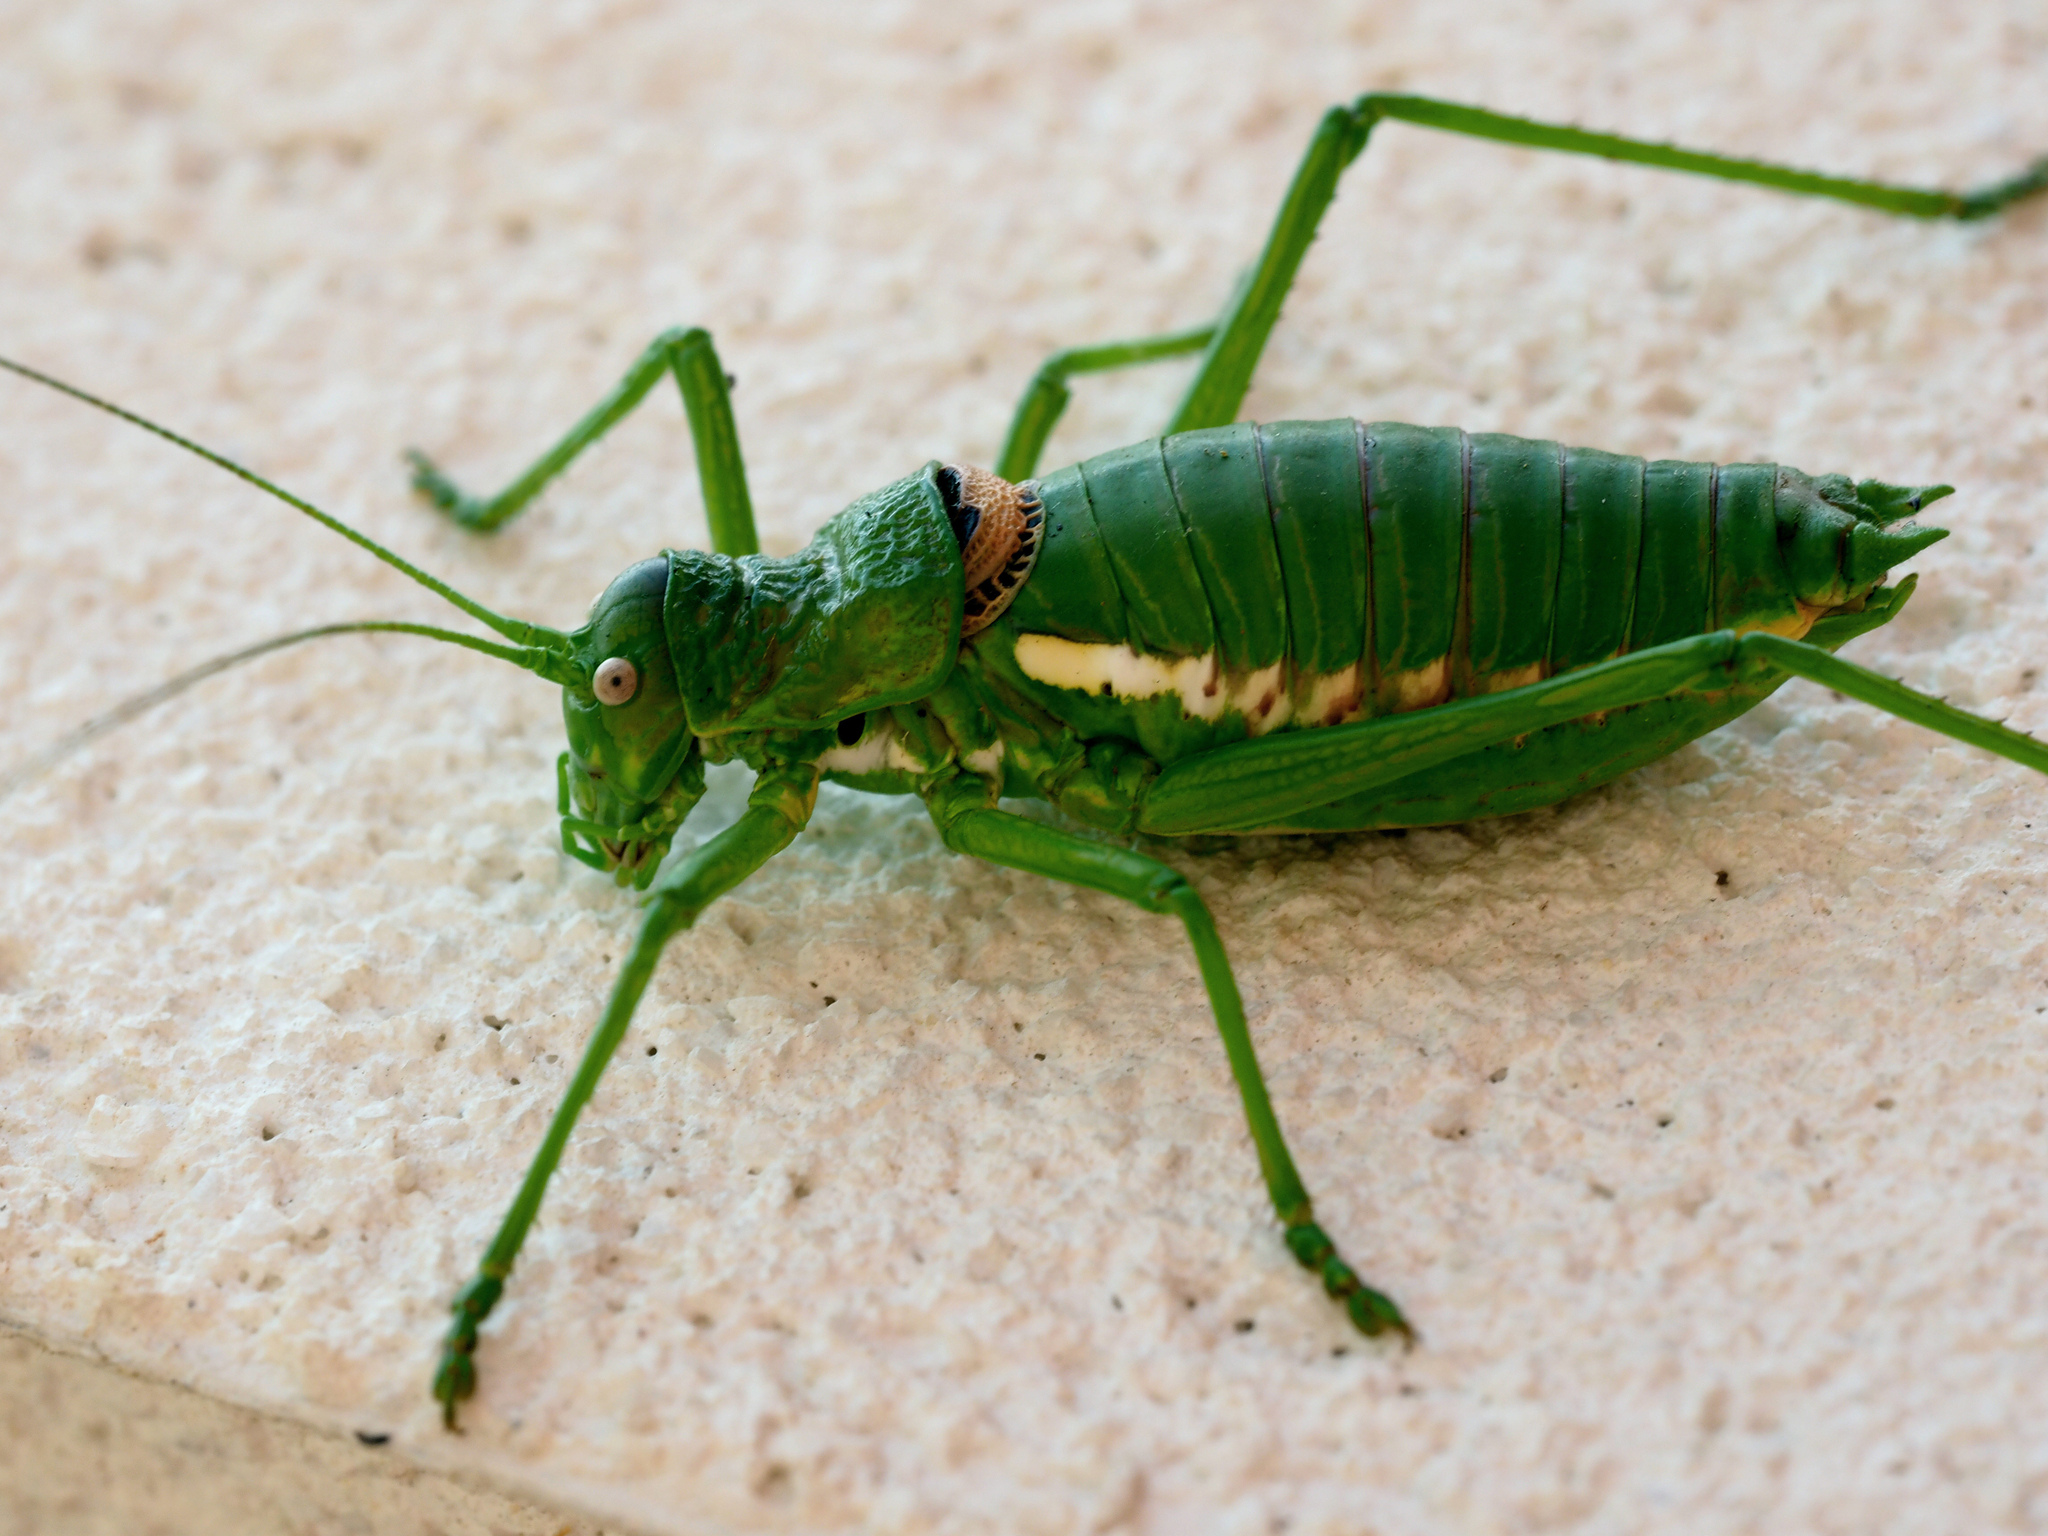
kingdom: Animalia
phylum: Arthropoda
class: Insecta
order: Orthoptera
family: Tettigoniidae
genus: Uromenus
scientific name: Uromenus brevicollis
